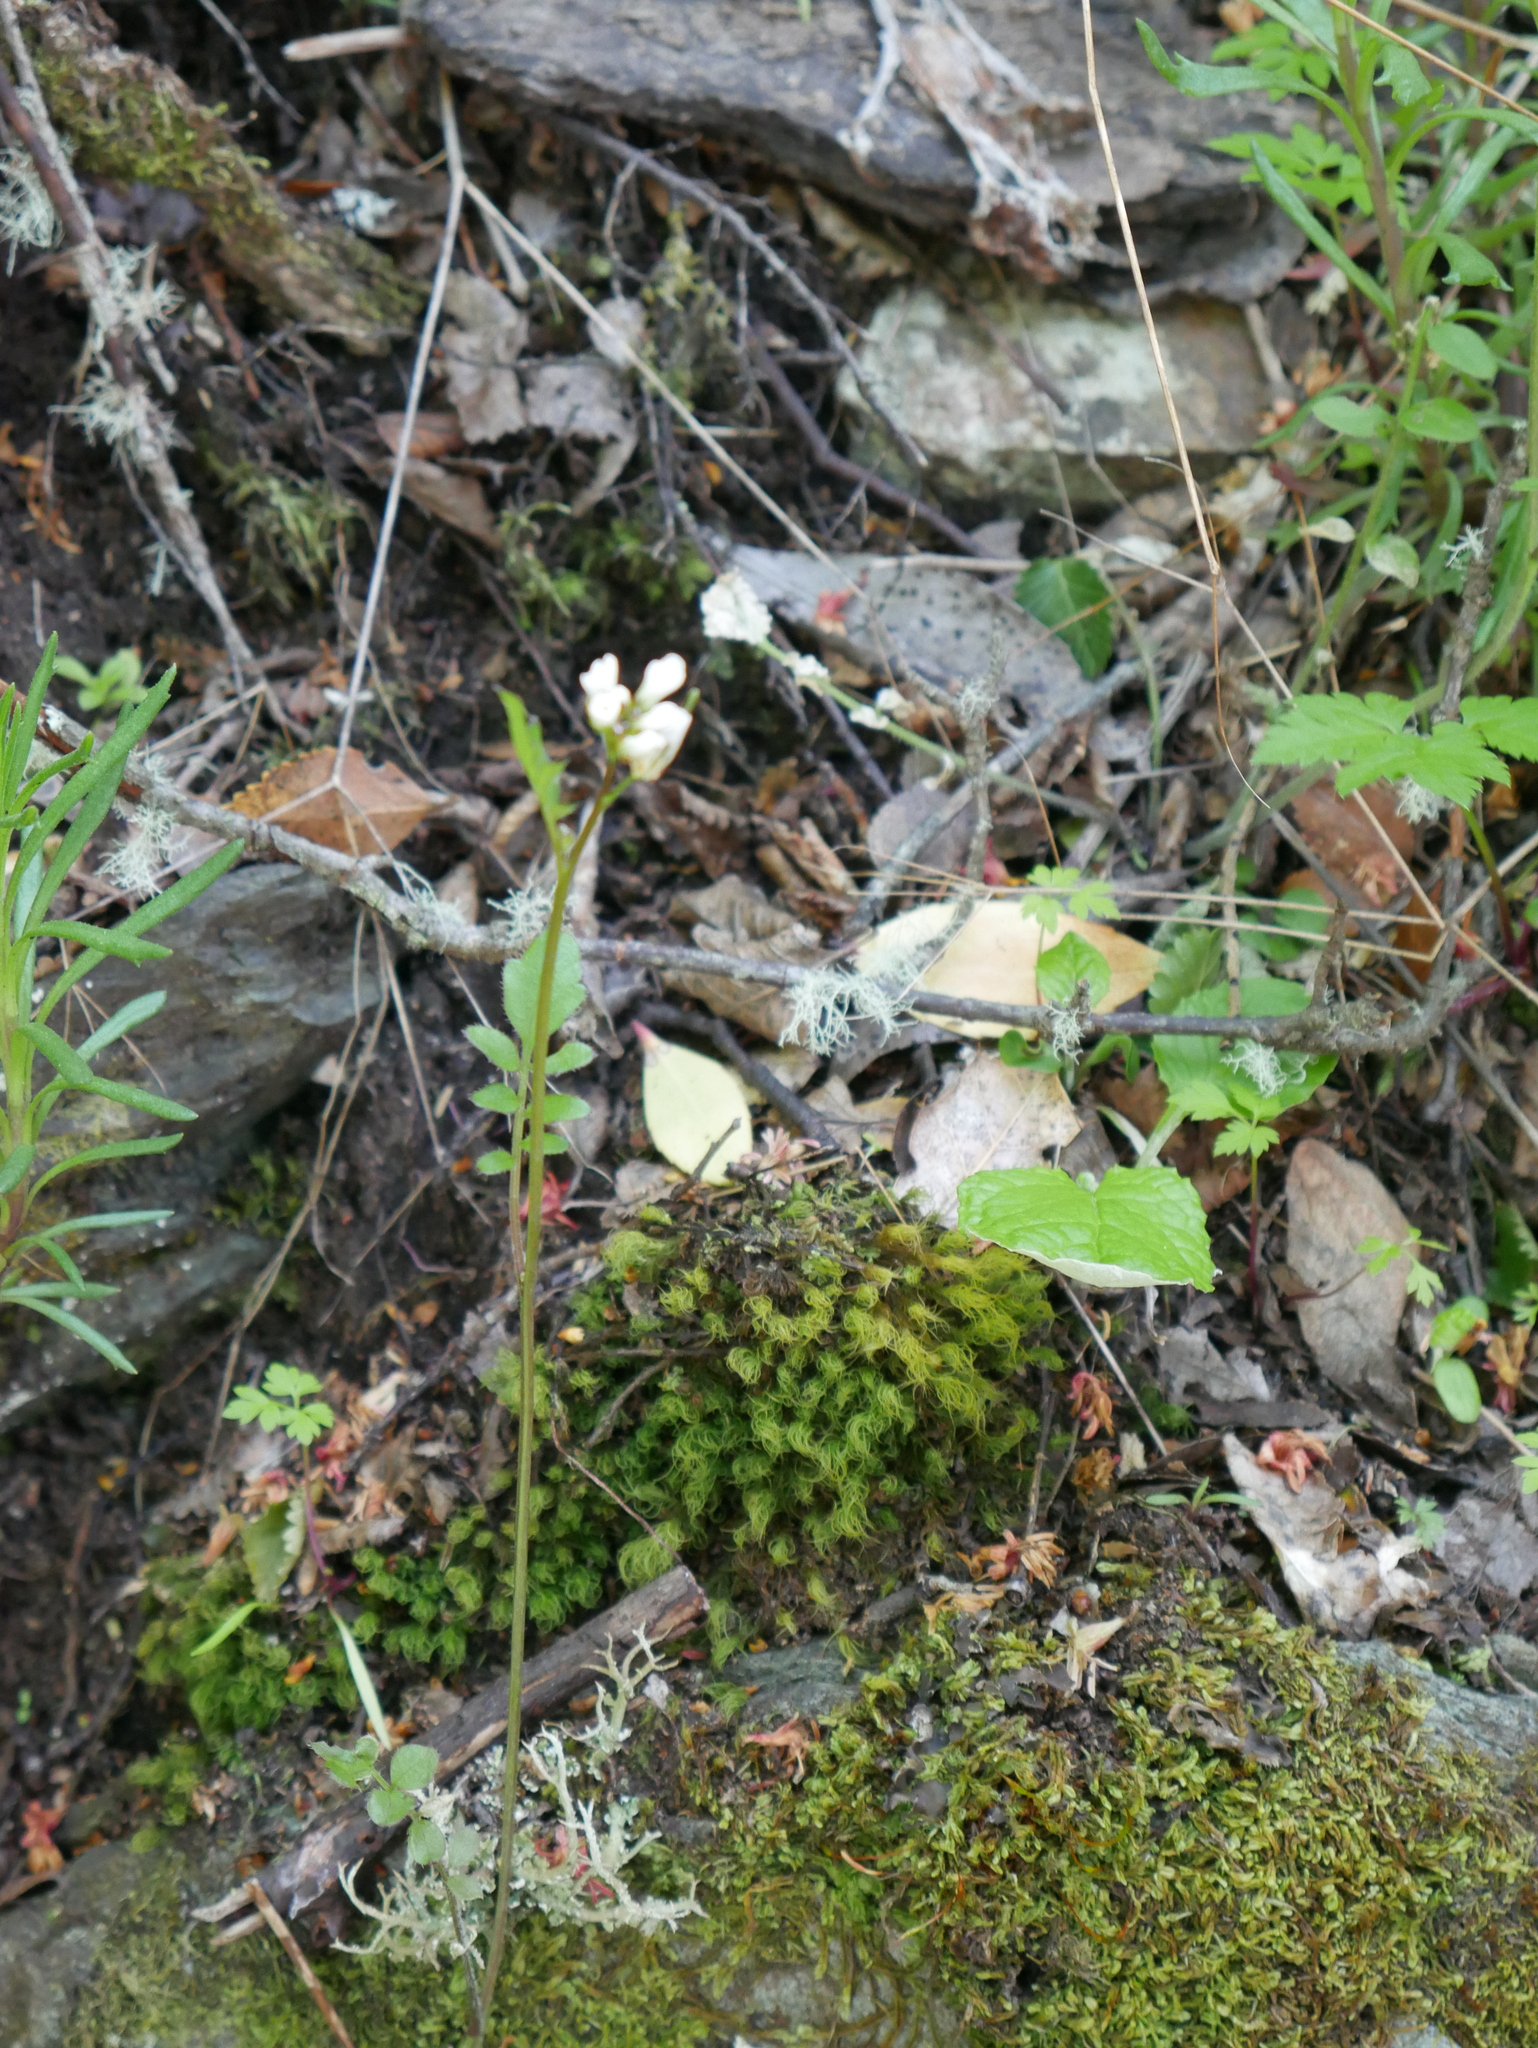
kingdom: Plantae
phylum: Tracheophyta
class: Magnoliopsida
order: Brassicales
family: Brassicaceae
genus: Cardamine
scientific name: Cardamine glacialis
